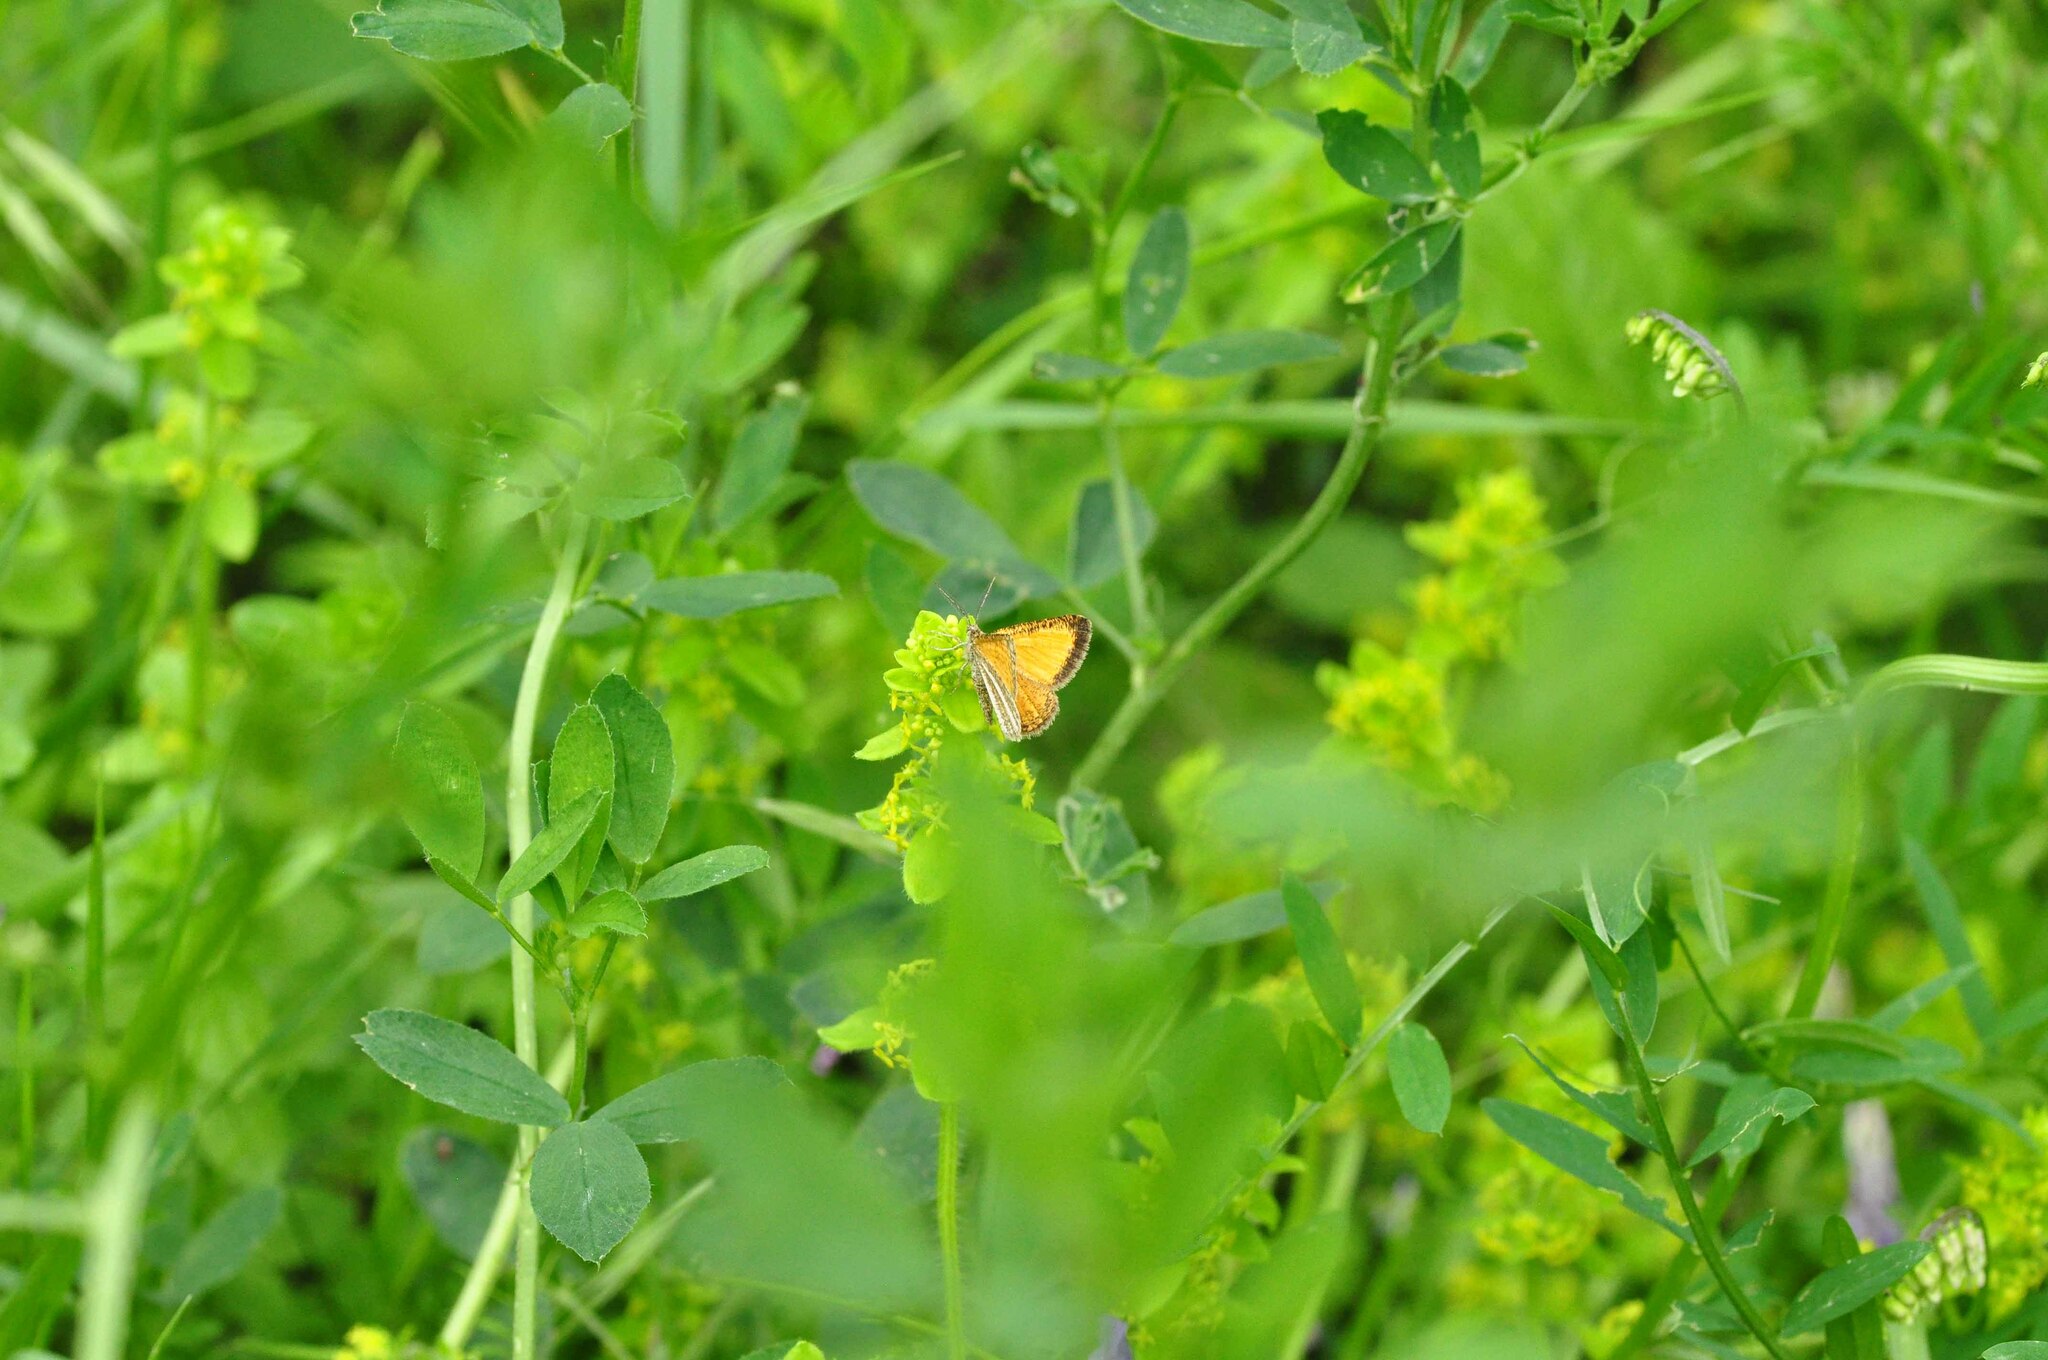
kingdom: Animalia
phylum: Arthropoda
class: Insecta
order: Lepidoptera
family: Geometridae
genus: Isturgia
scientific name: Isturgia limbaria
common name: Frosted yellow
